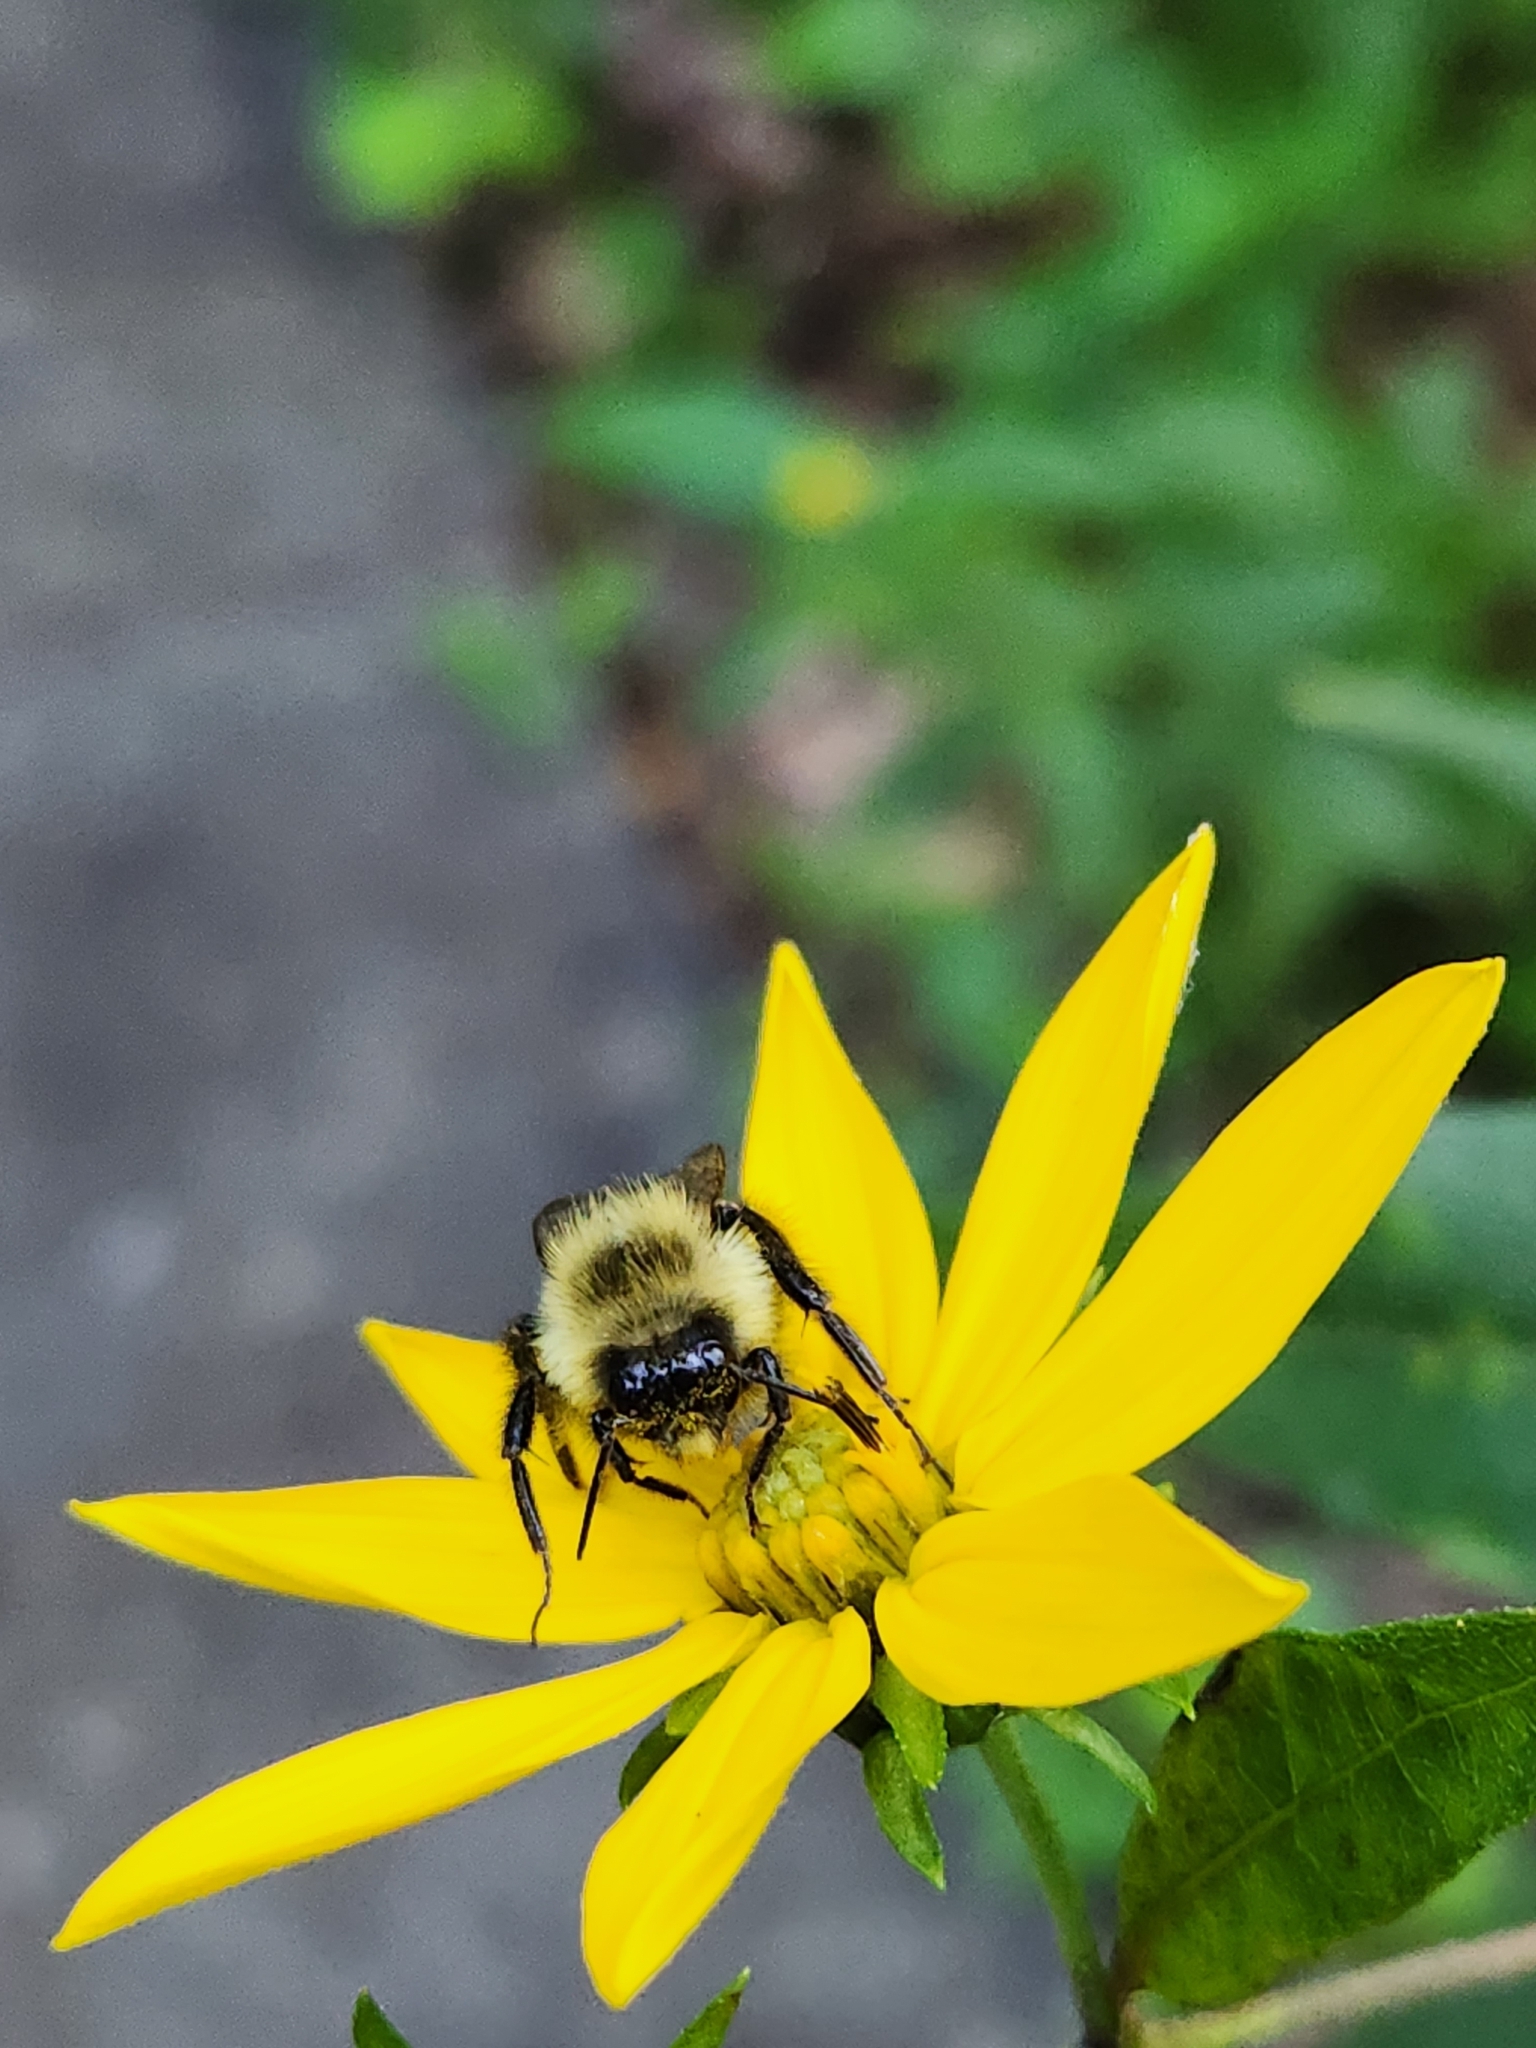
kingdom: Animalia
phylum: Arthropoda
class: Insecta
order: Hymenoptera
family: Apidae
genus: Bombus
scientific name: Bombus impatiens
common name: Common eastern bumble bee
